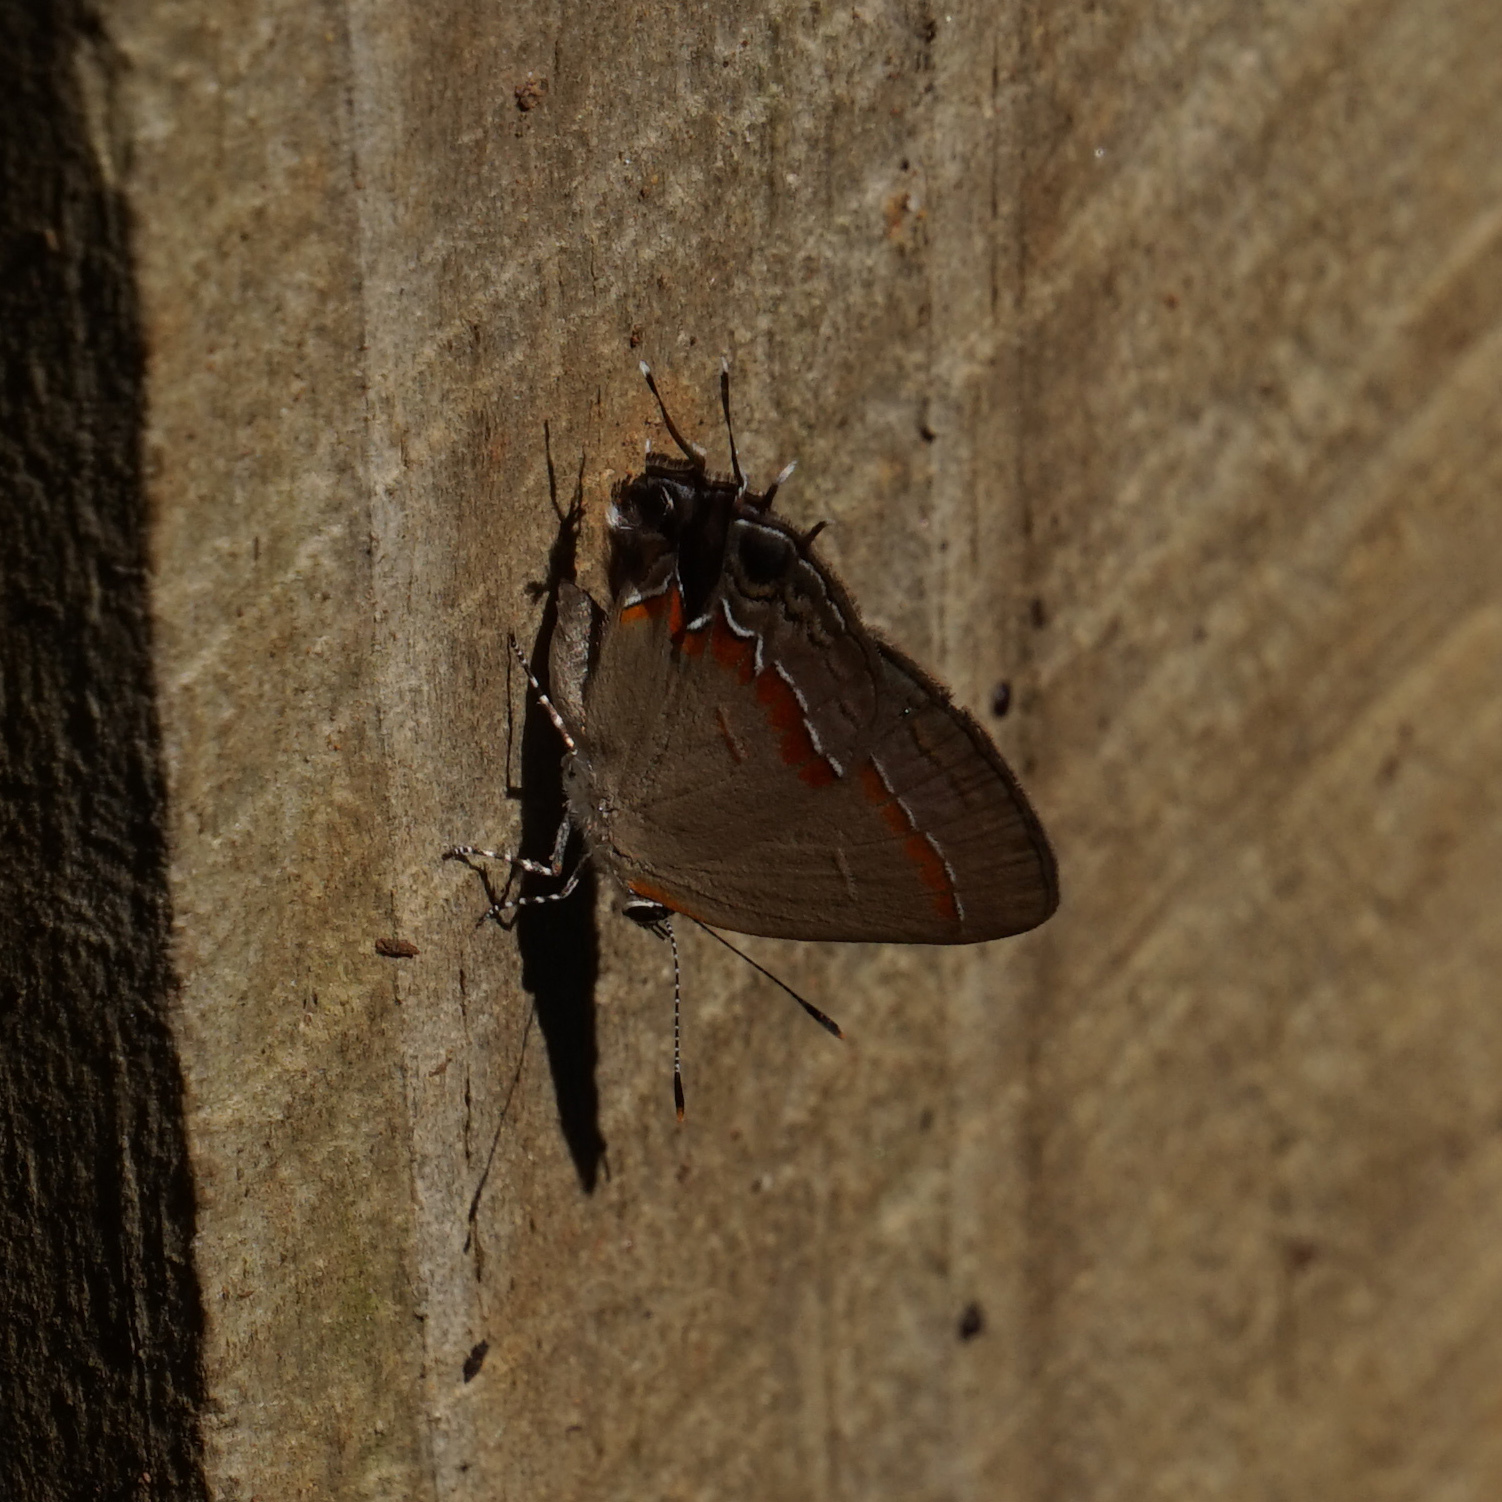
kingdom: Animalia
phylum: Arthropoda
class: Insecta
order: Lepidoptera
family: Lycaenidae
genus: Calycopis
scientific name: Calycopis cecrops
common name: Red-banded hairstreak
